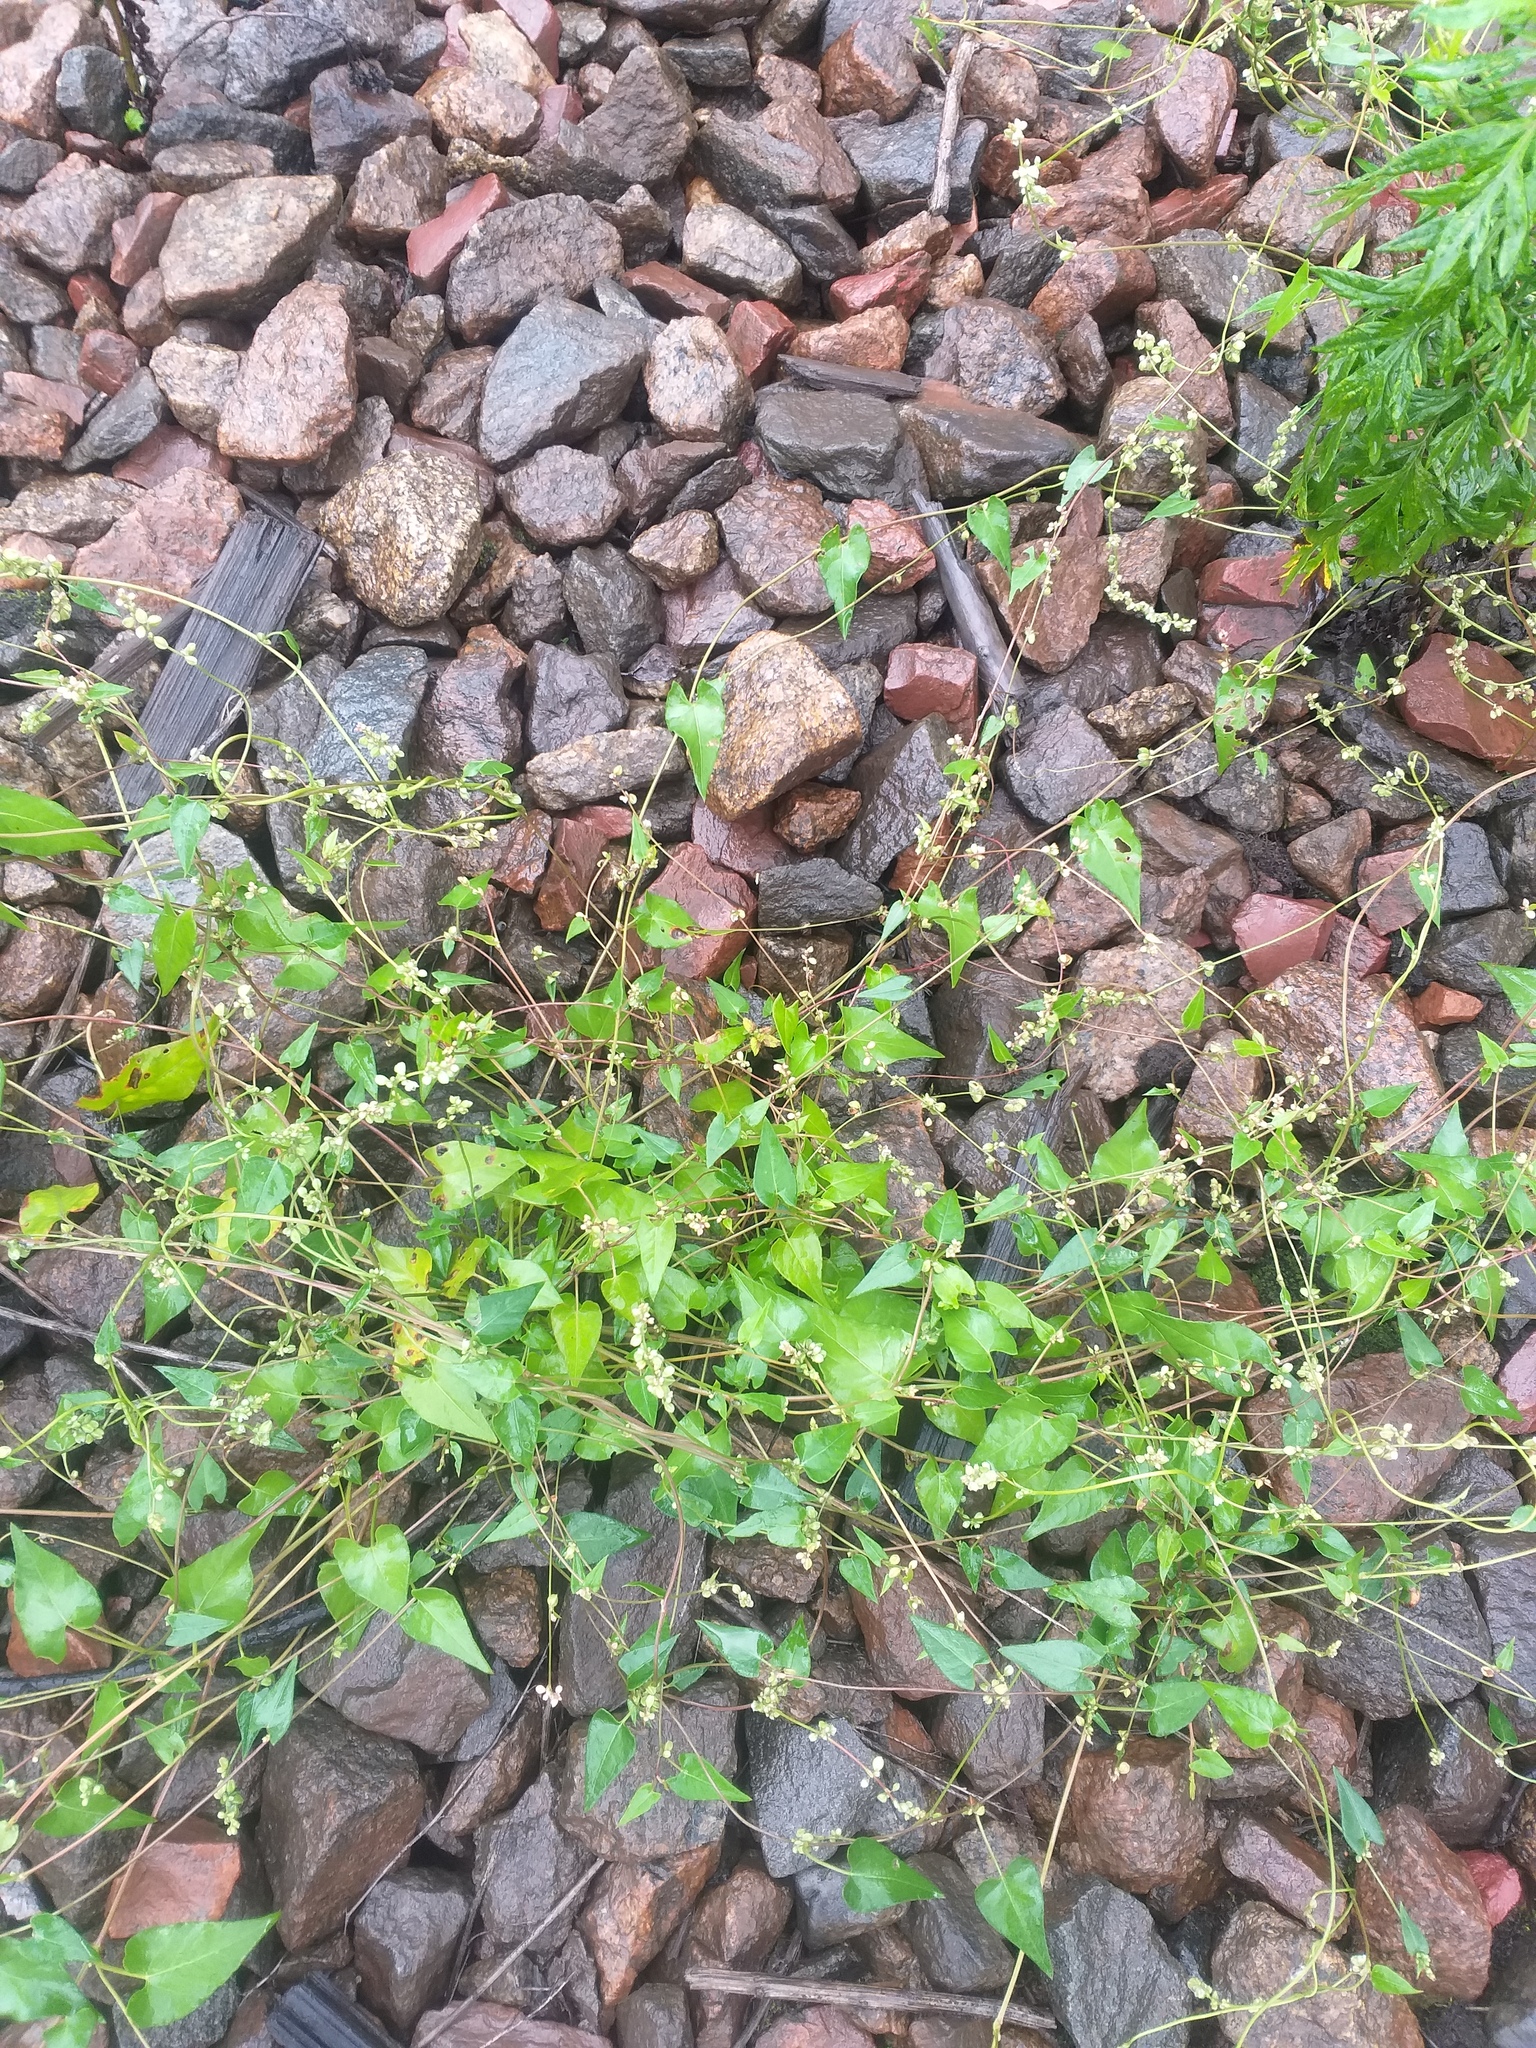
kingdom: Plantae
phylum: Tracheophyta
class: Magnoliopsida
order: Caryophyllales
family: Polygonaceae
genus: Fallopia
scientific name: Fallopia convolvulus
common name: Black bindweed
